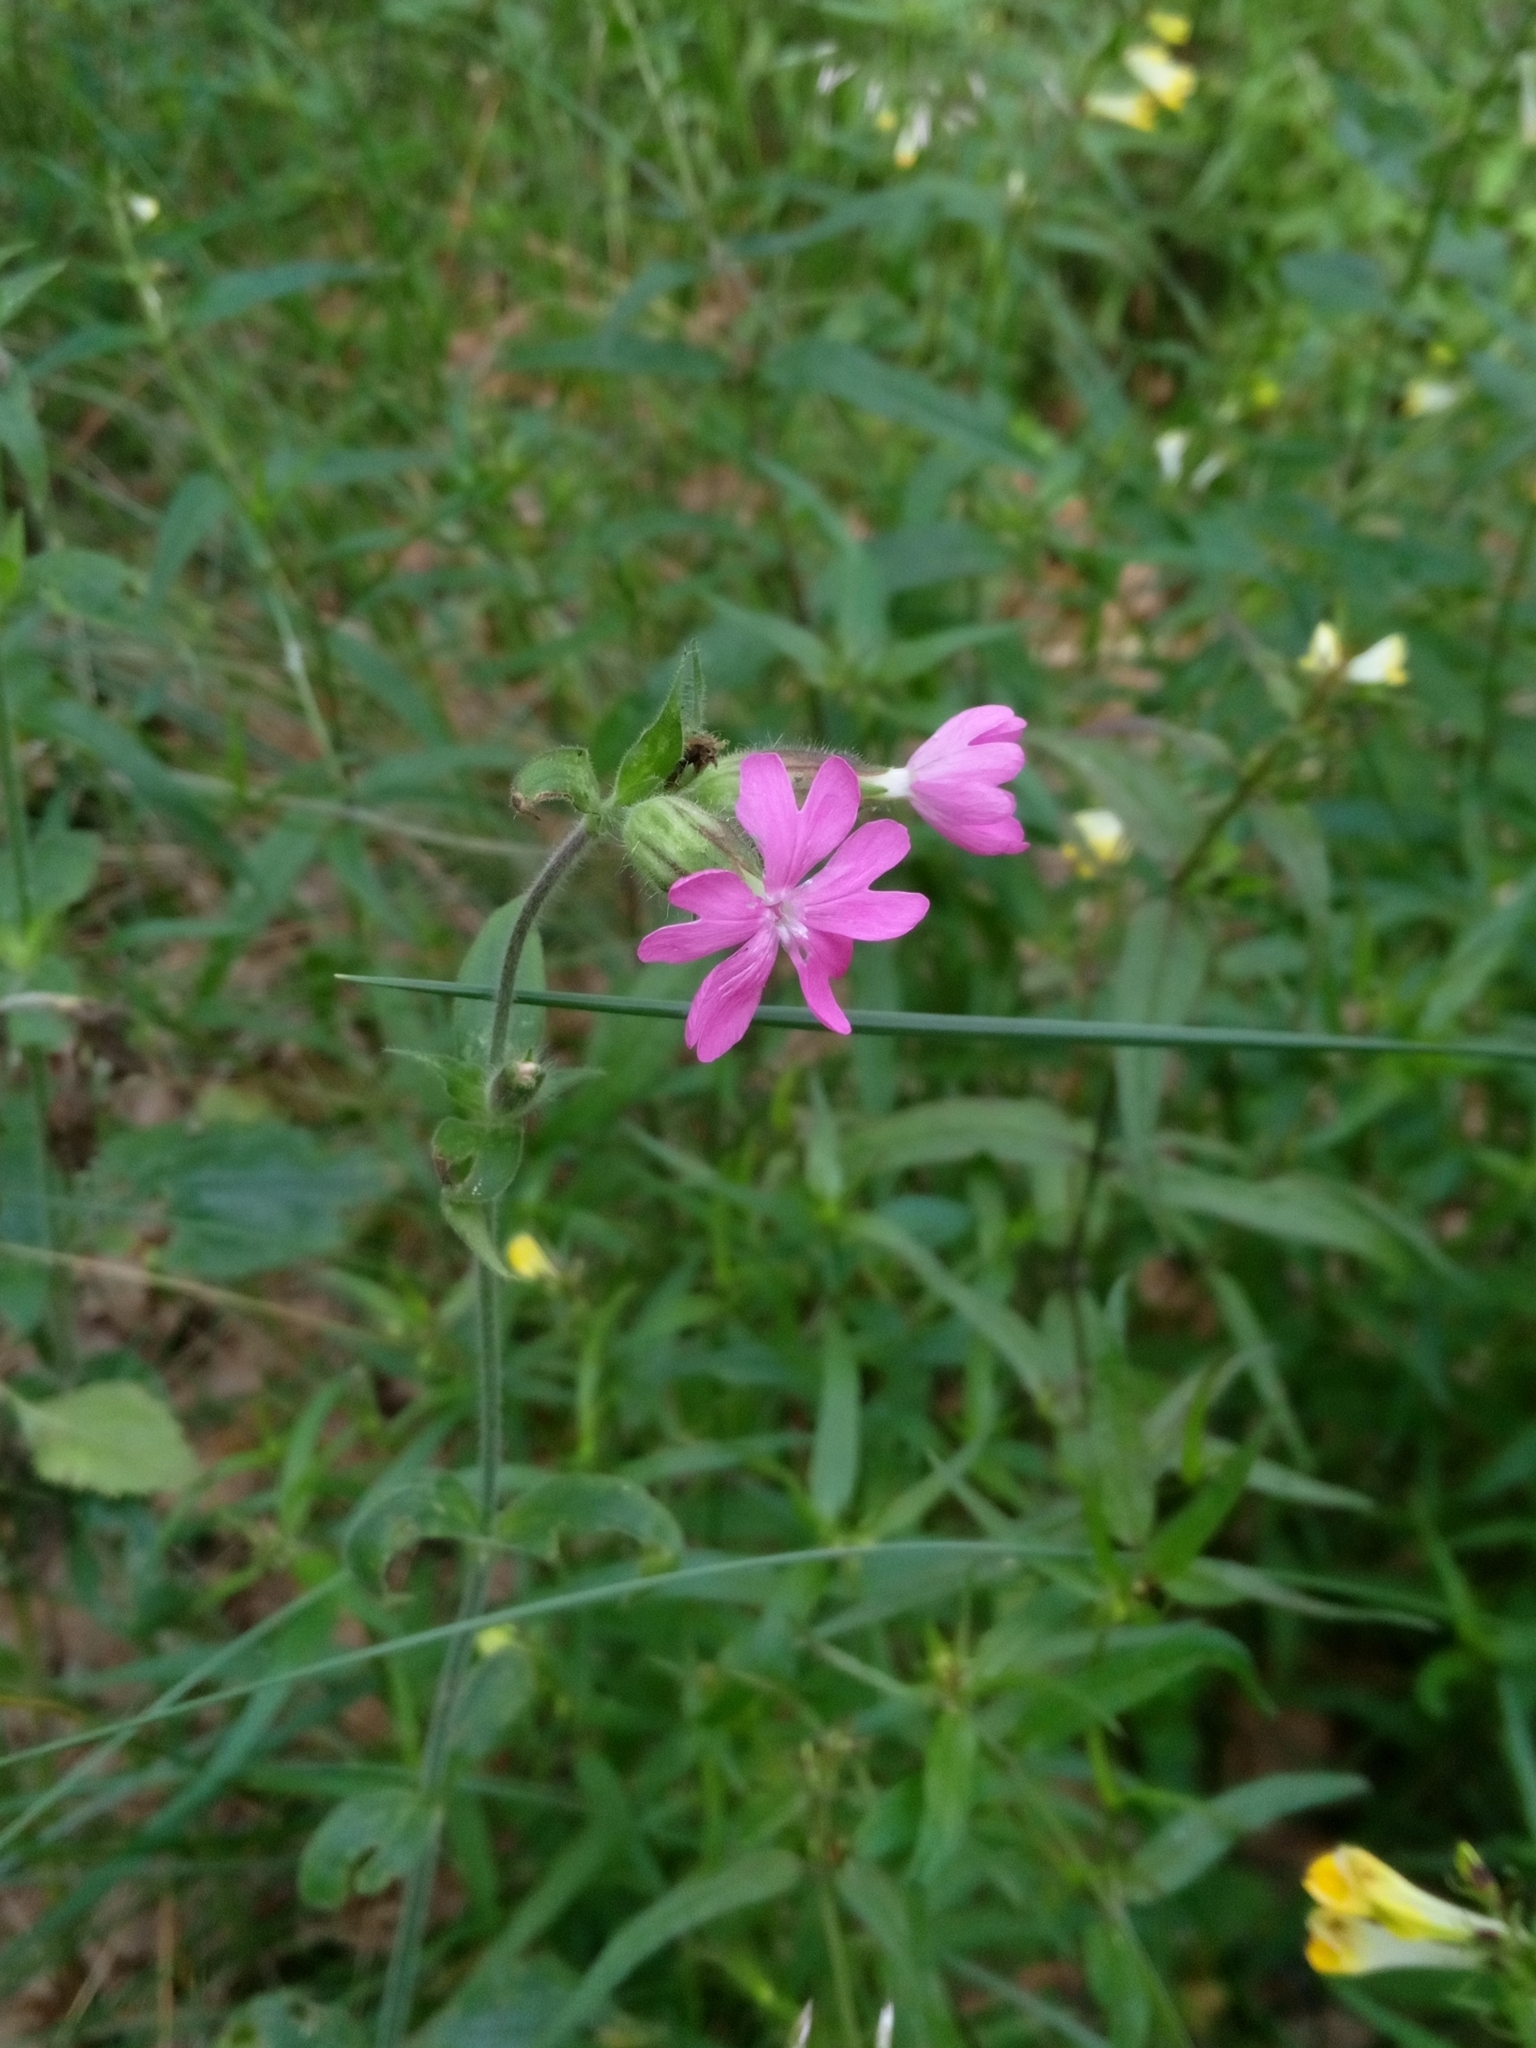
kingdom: Plantae
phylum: Tracheophyta
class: Magnoliopsida
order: Caryophyllales
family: Caryophyllaceae
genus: Silene
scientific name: Silene dioica
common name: Red campion
